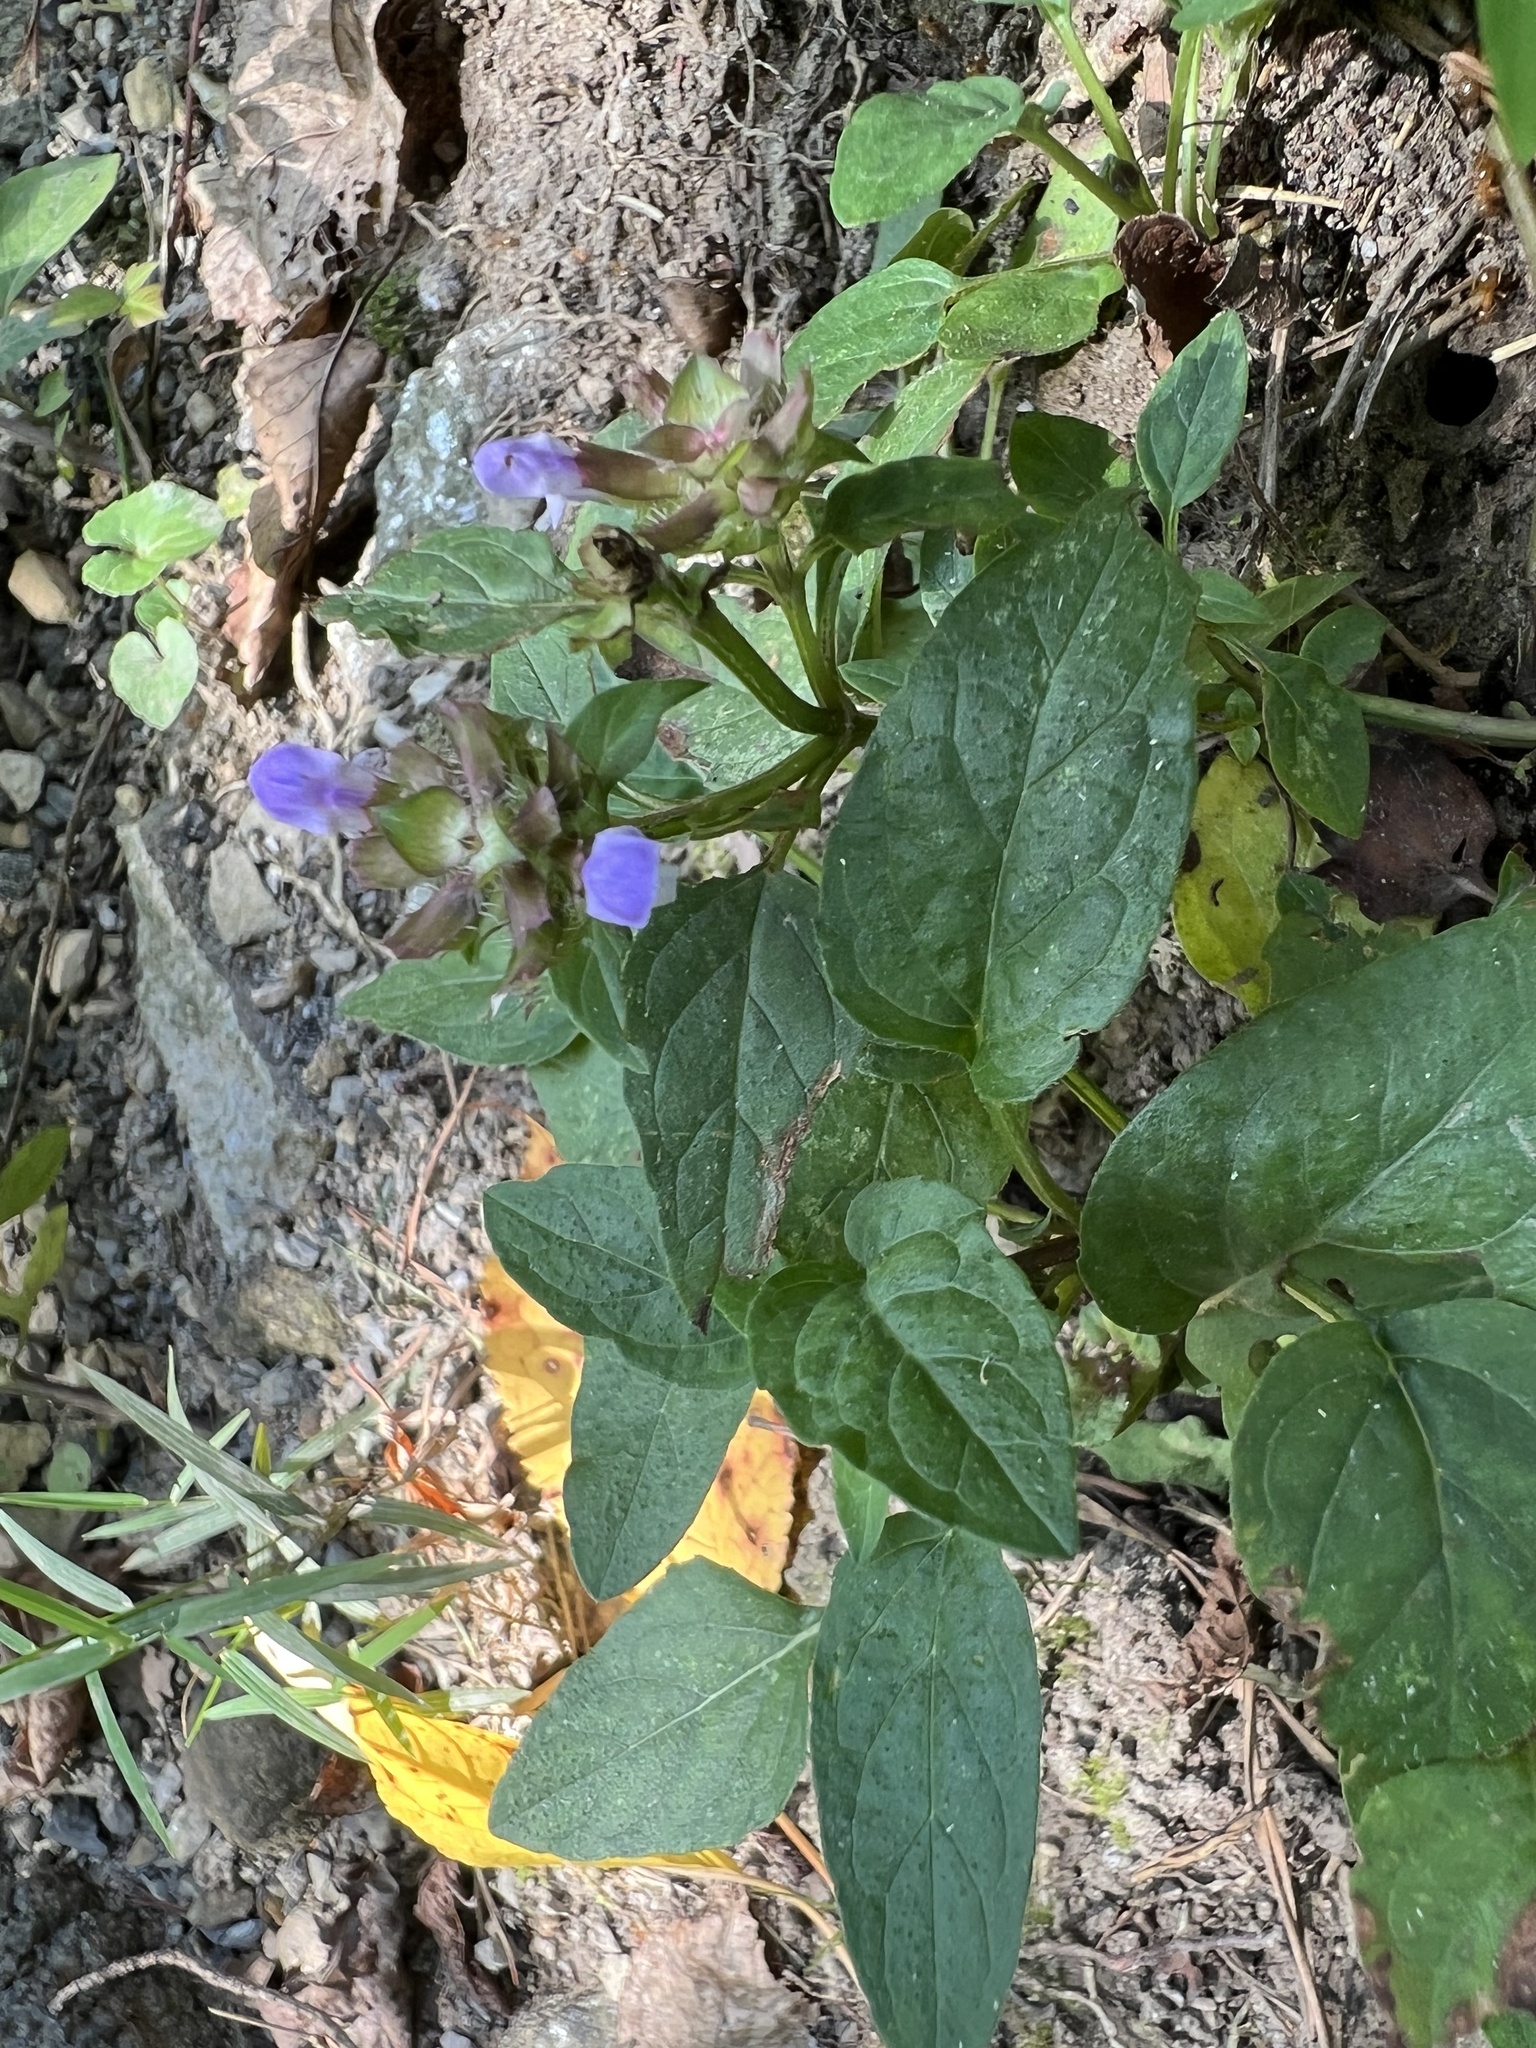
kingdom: Plantae
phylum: Tracheophyta
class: Magnoliopsida
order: Lamiales
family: Lamiaceae
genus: Prunella
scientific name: Prunella vulgaris
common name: Heal-all
